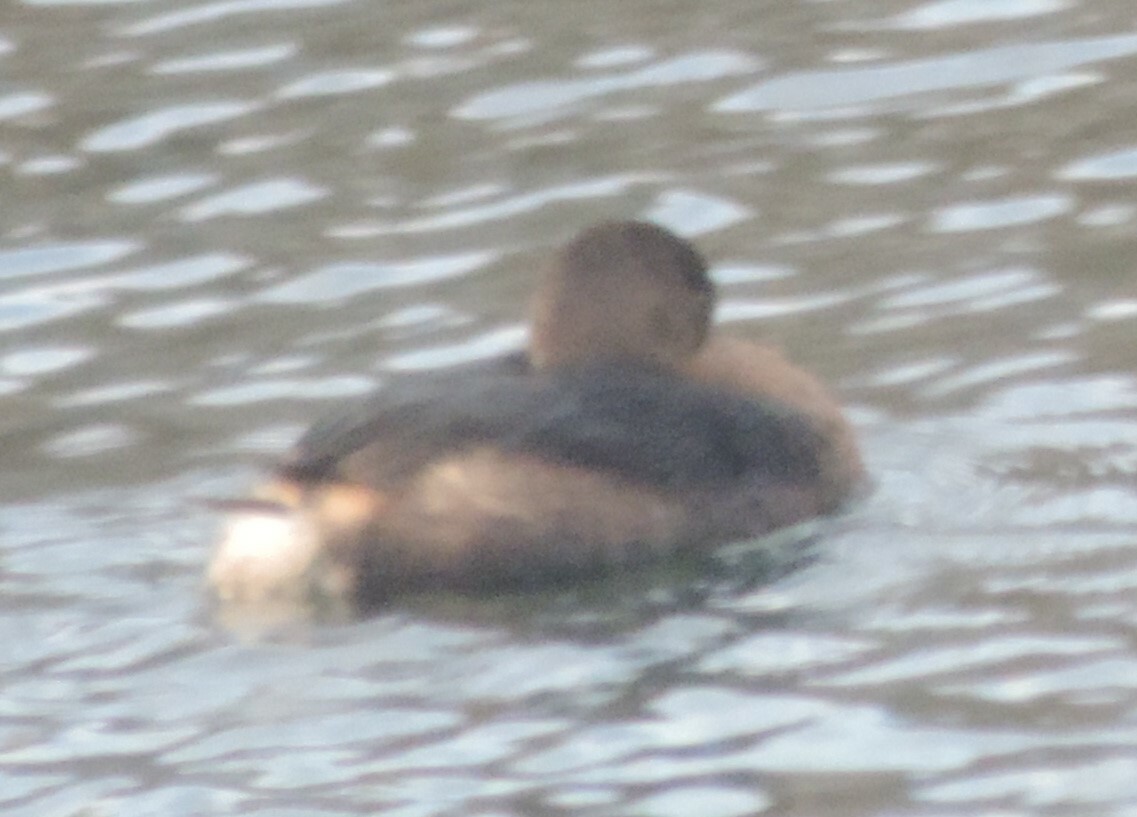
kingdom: Animalia
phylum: Chordata
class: Aves
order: Podicipediformes
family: Podicipedidae
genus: Podilymbus
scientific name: Podilymbus podiceps
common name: Pied-billed grebe
